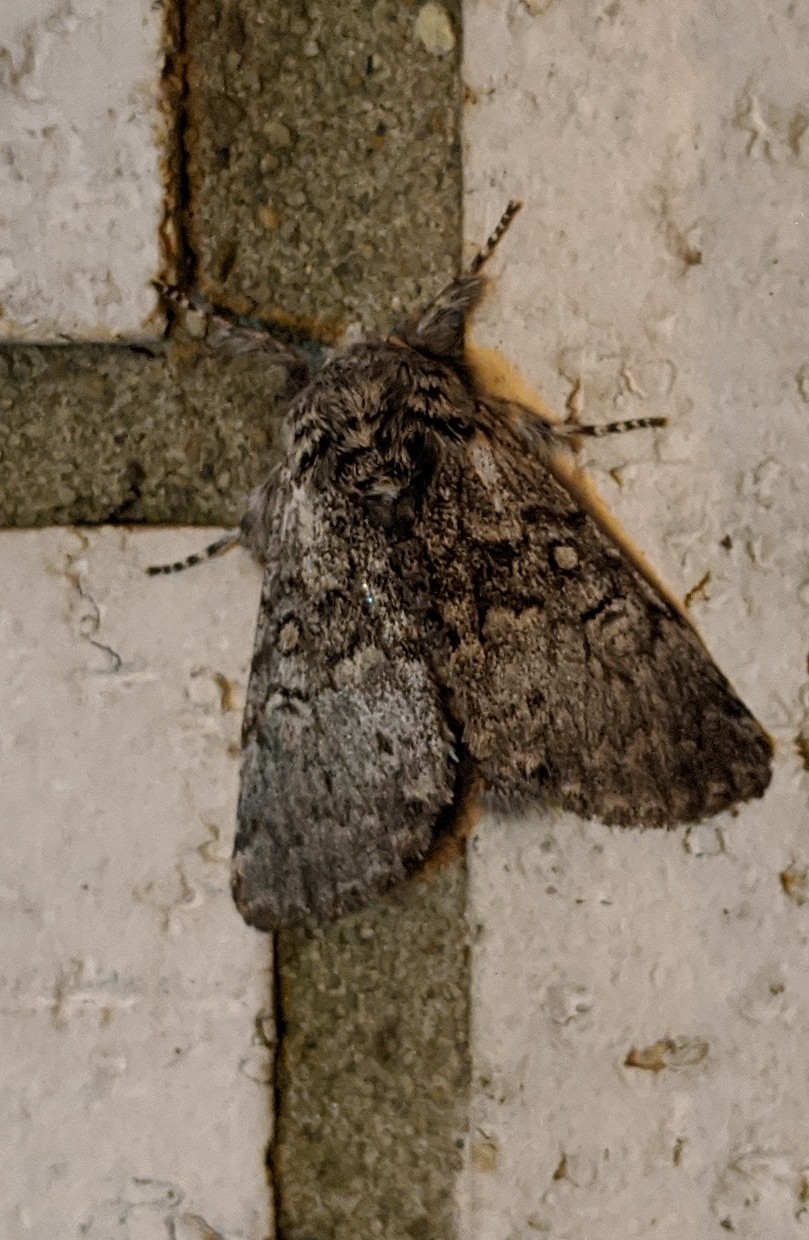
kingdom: Animalia
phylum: Arthropoda
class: Insecta
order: Lepidoptera
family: Noctuidae
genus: Colocasia
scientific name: Colocasia propinquilinea
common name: Close-banded demas
